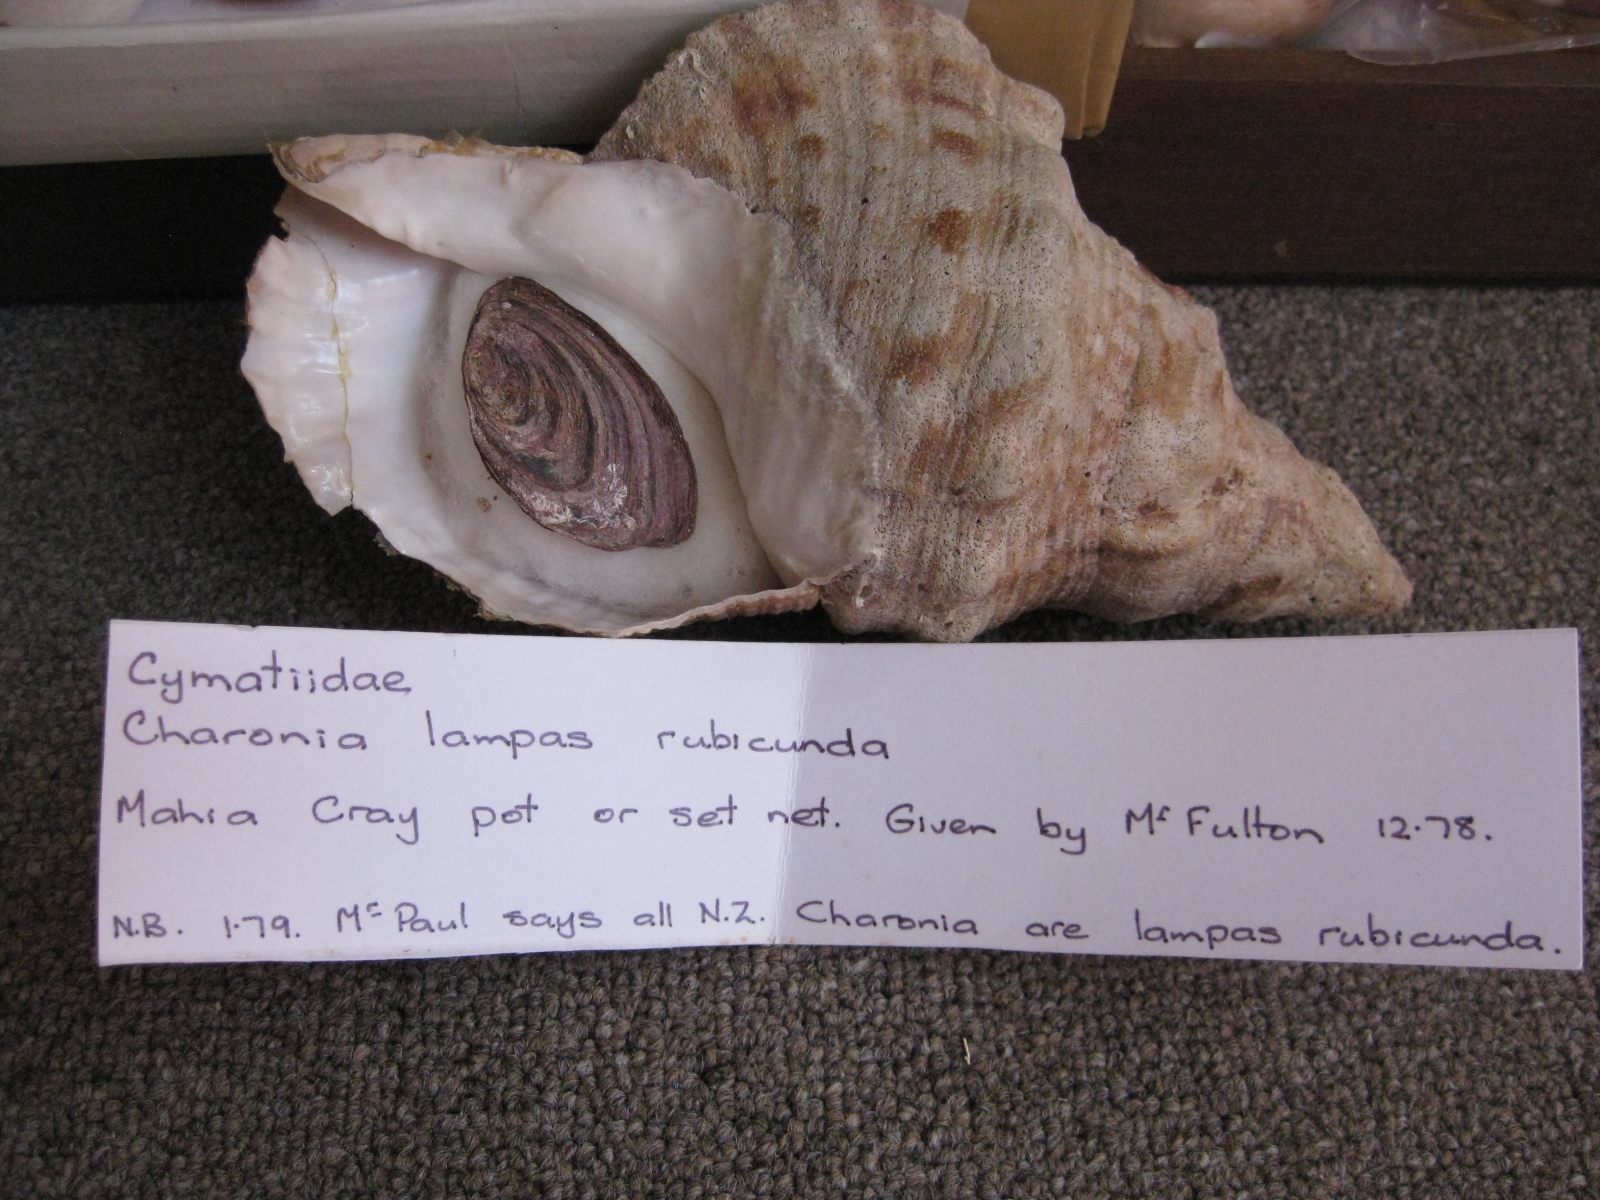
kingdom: Animalia
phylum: Mollusca
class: Gastropoda
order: Littorinimorpha
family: Charoniidae
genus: Charonia
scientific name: Charonia lampas
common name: Knobbed triton
